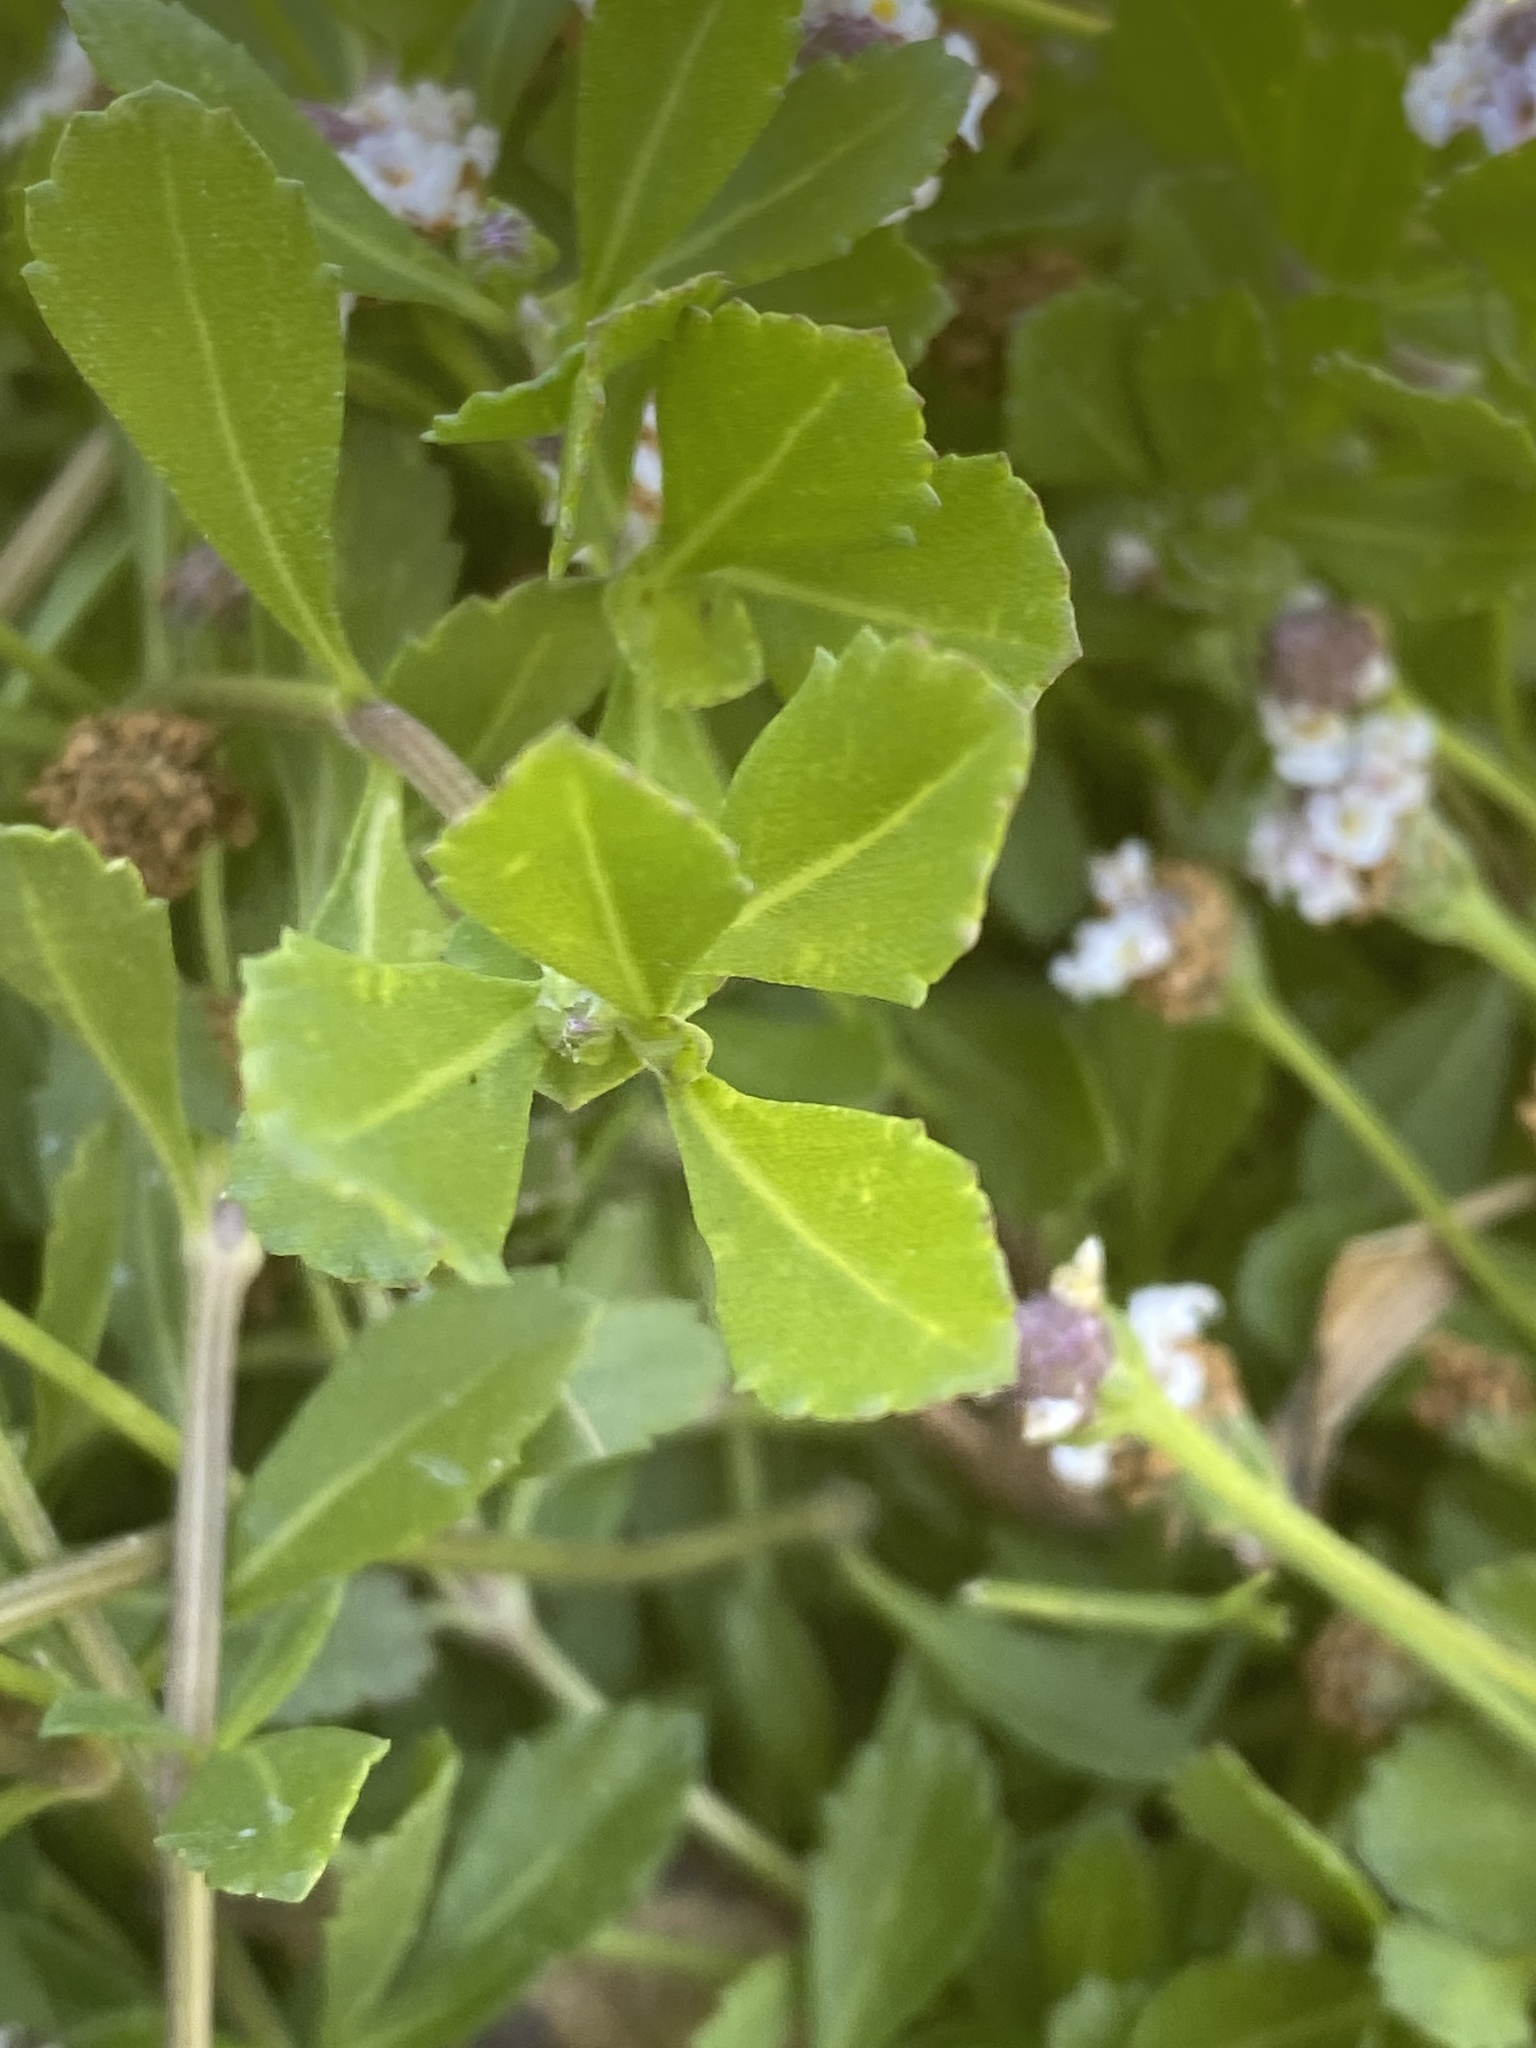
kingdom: Plantae
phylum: Tracheophyta
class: Magnoliopsida
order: Lamiales
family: Verbenaceae
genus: Phyla
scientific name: Phyla nodiflora
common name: Frogfruit
